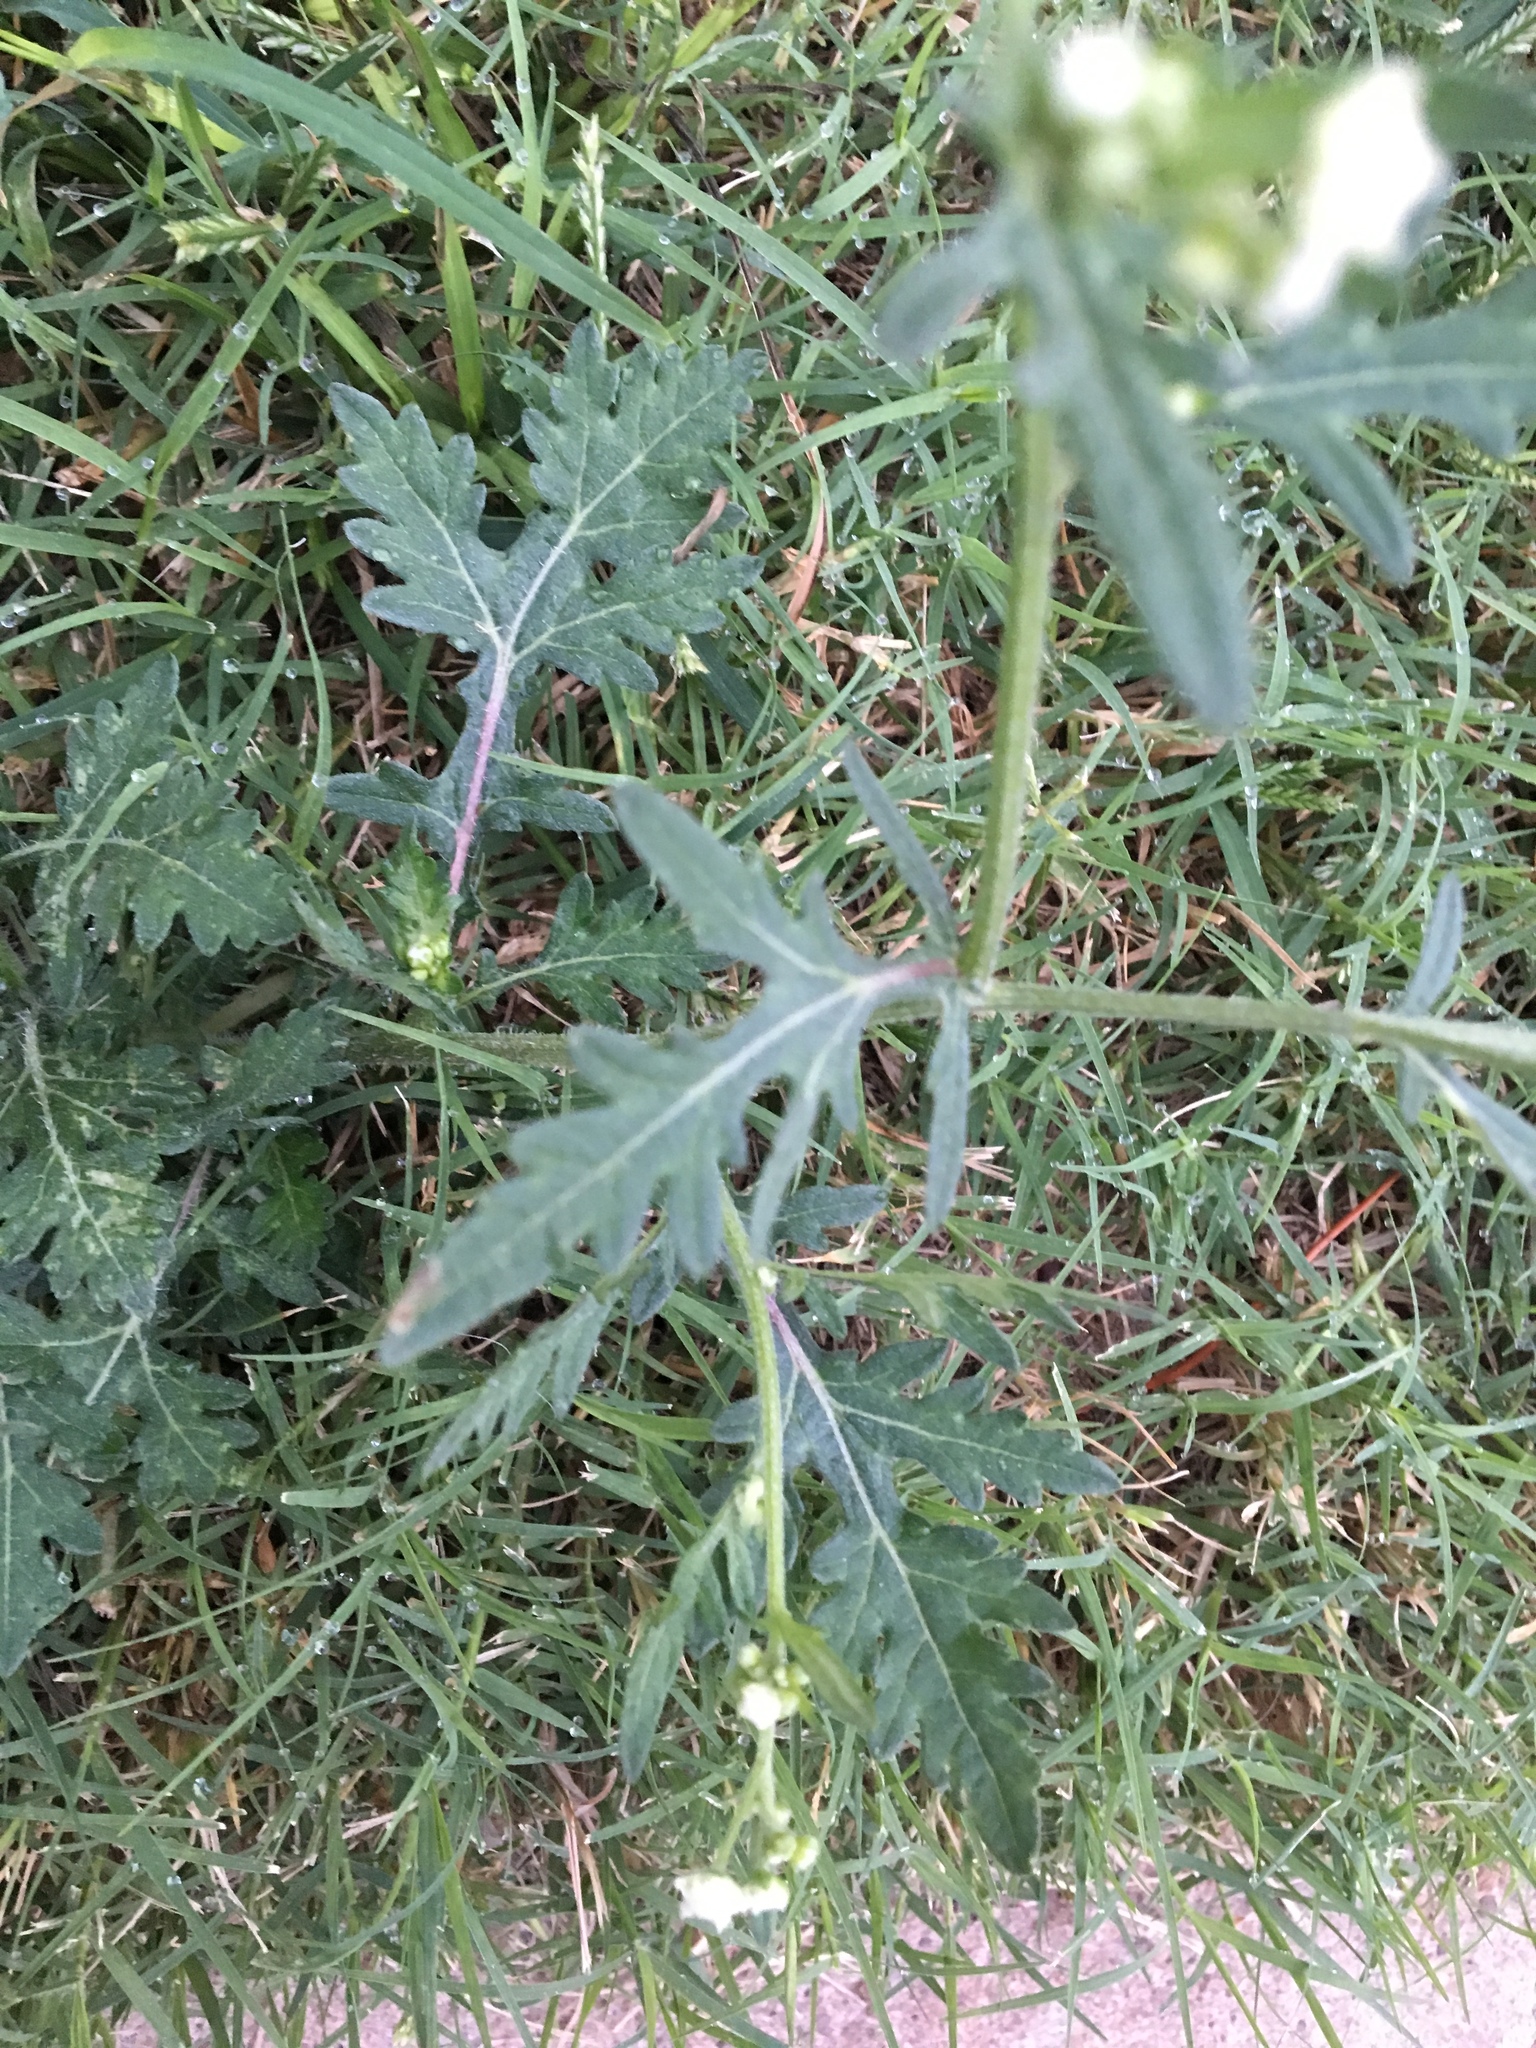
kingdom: Plantae
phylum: Tracheophyta
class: Magnoliopsida
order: Asterales
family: Asteraceae
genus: Parthenium
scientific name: Parthenium hysterophorus
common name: Santa maria feverfew
